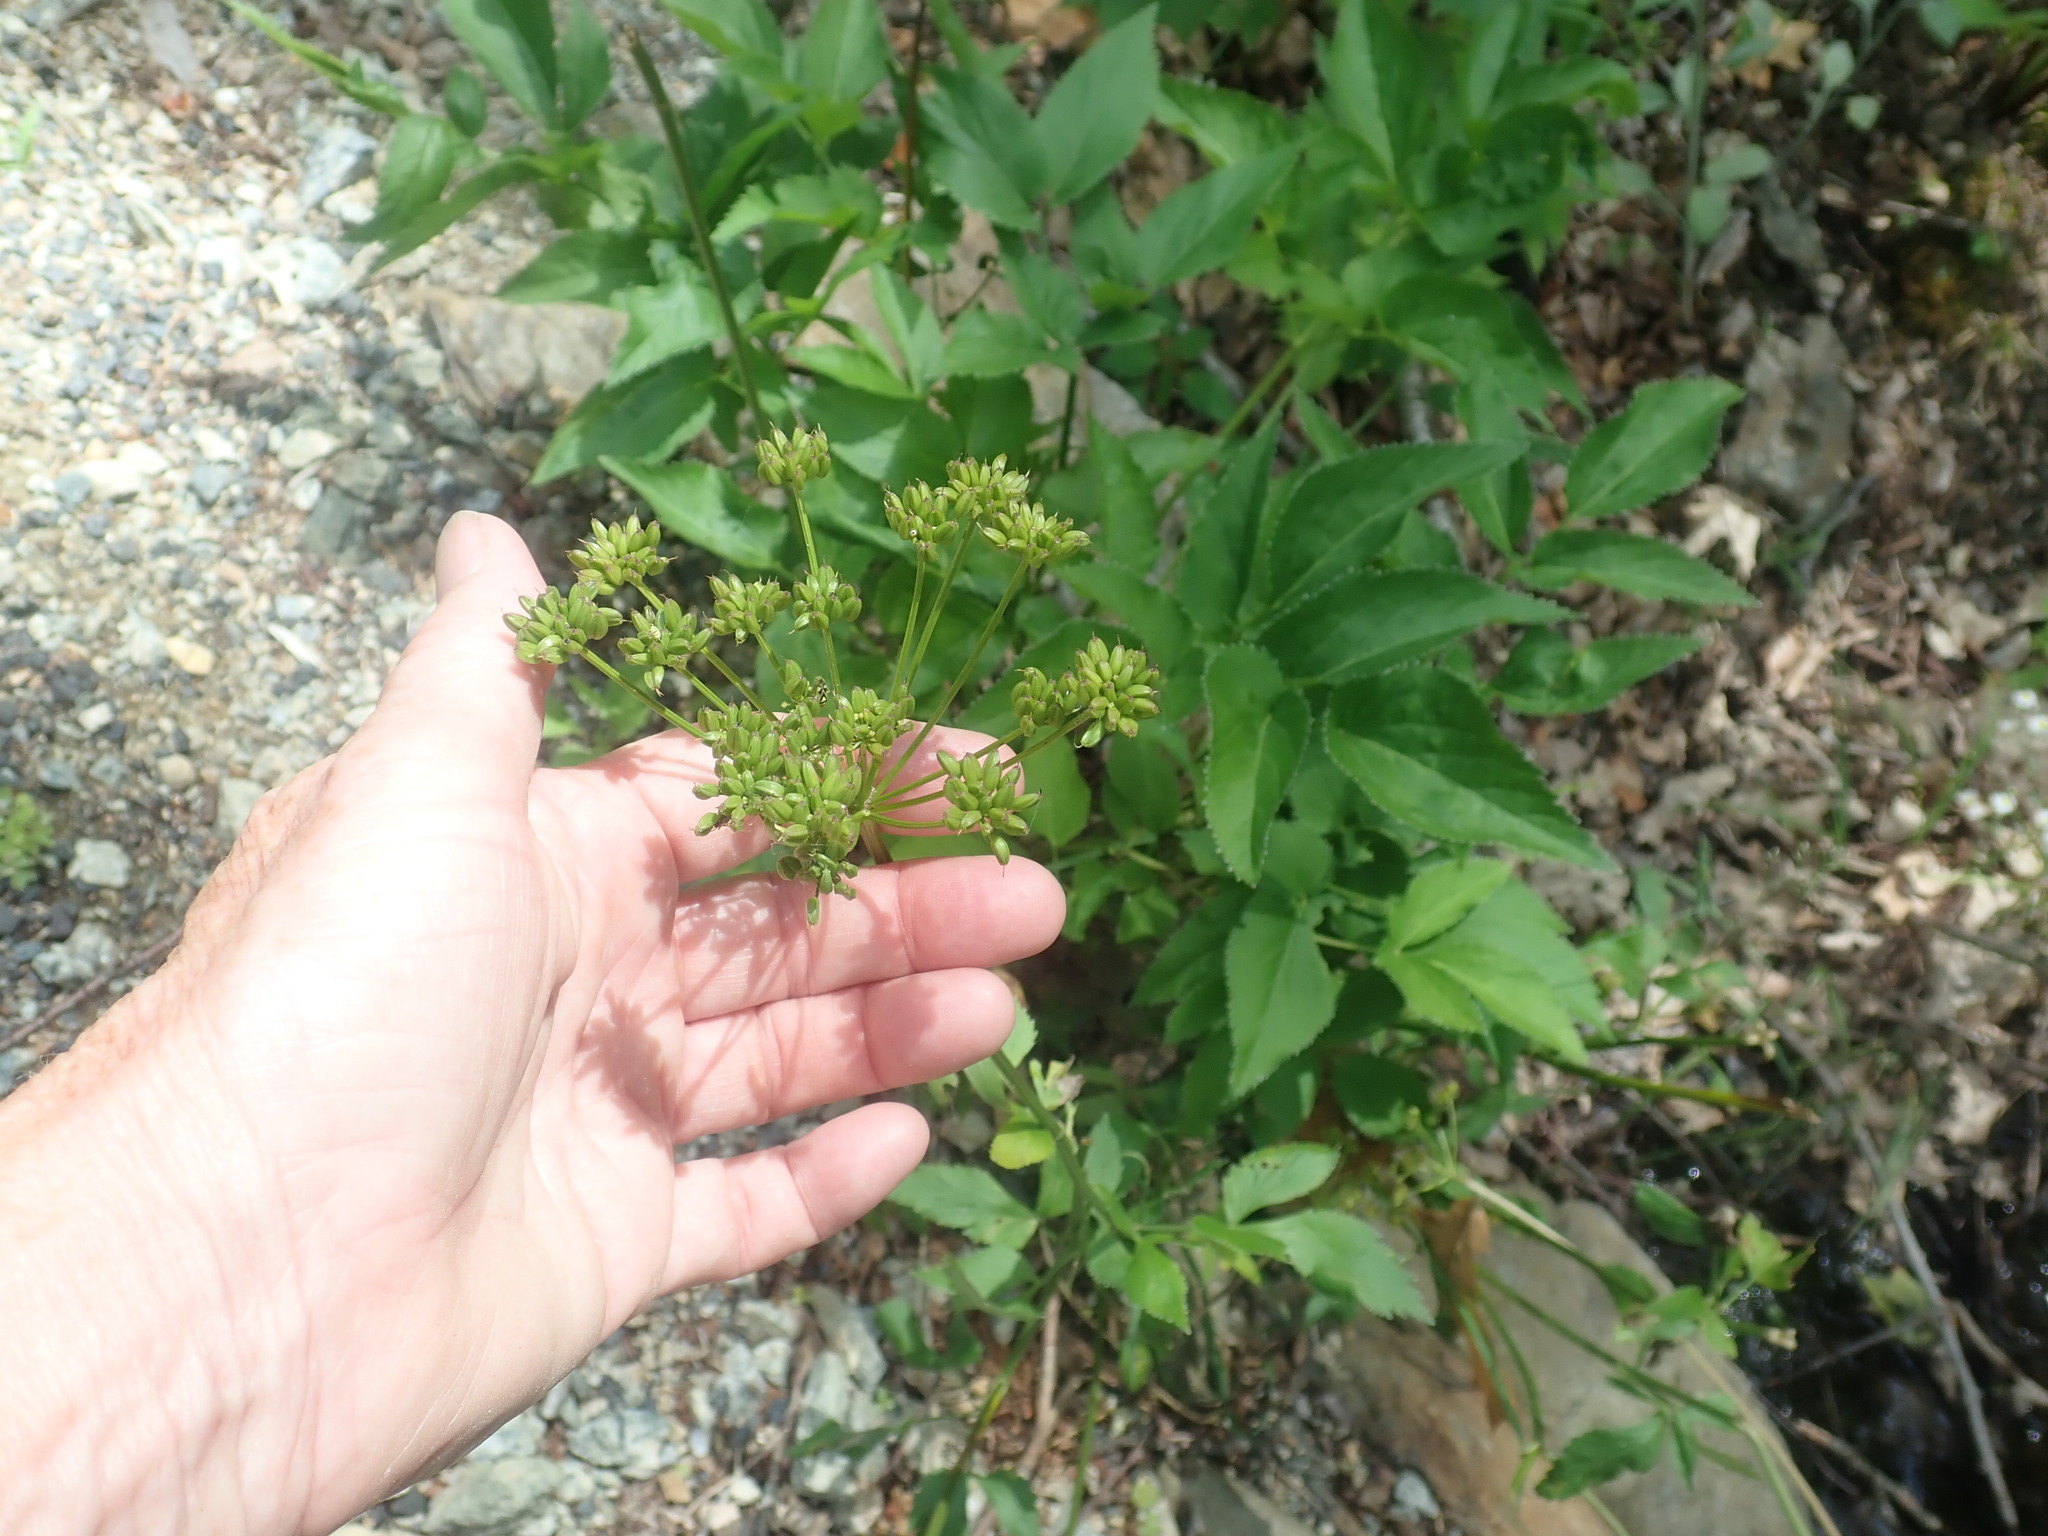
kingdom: Plantae
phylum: Tracheophyta
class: Magnoliopsida
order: Apiales
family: Apiaceae
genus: Zizia
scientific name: Zizia aurea
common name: Golden alexanders
